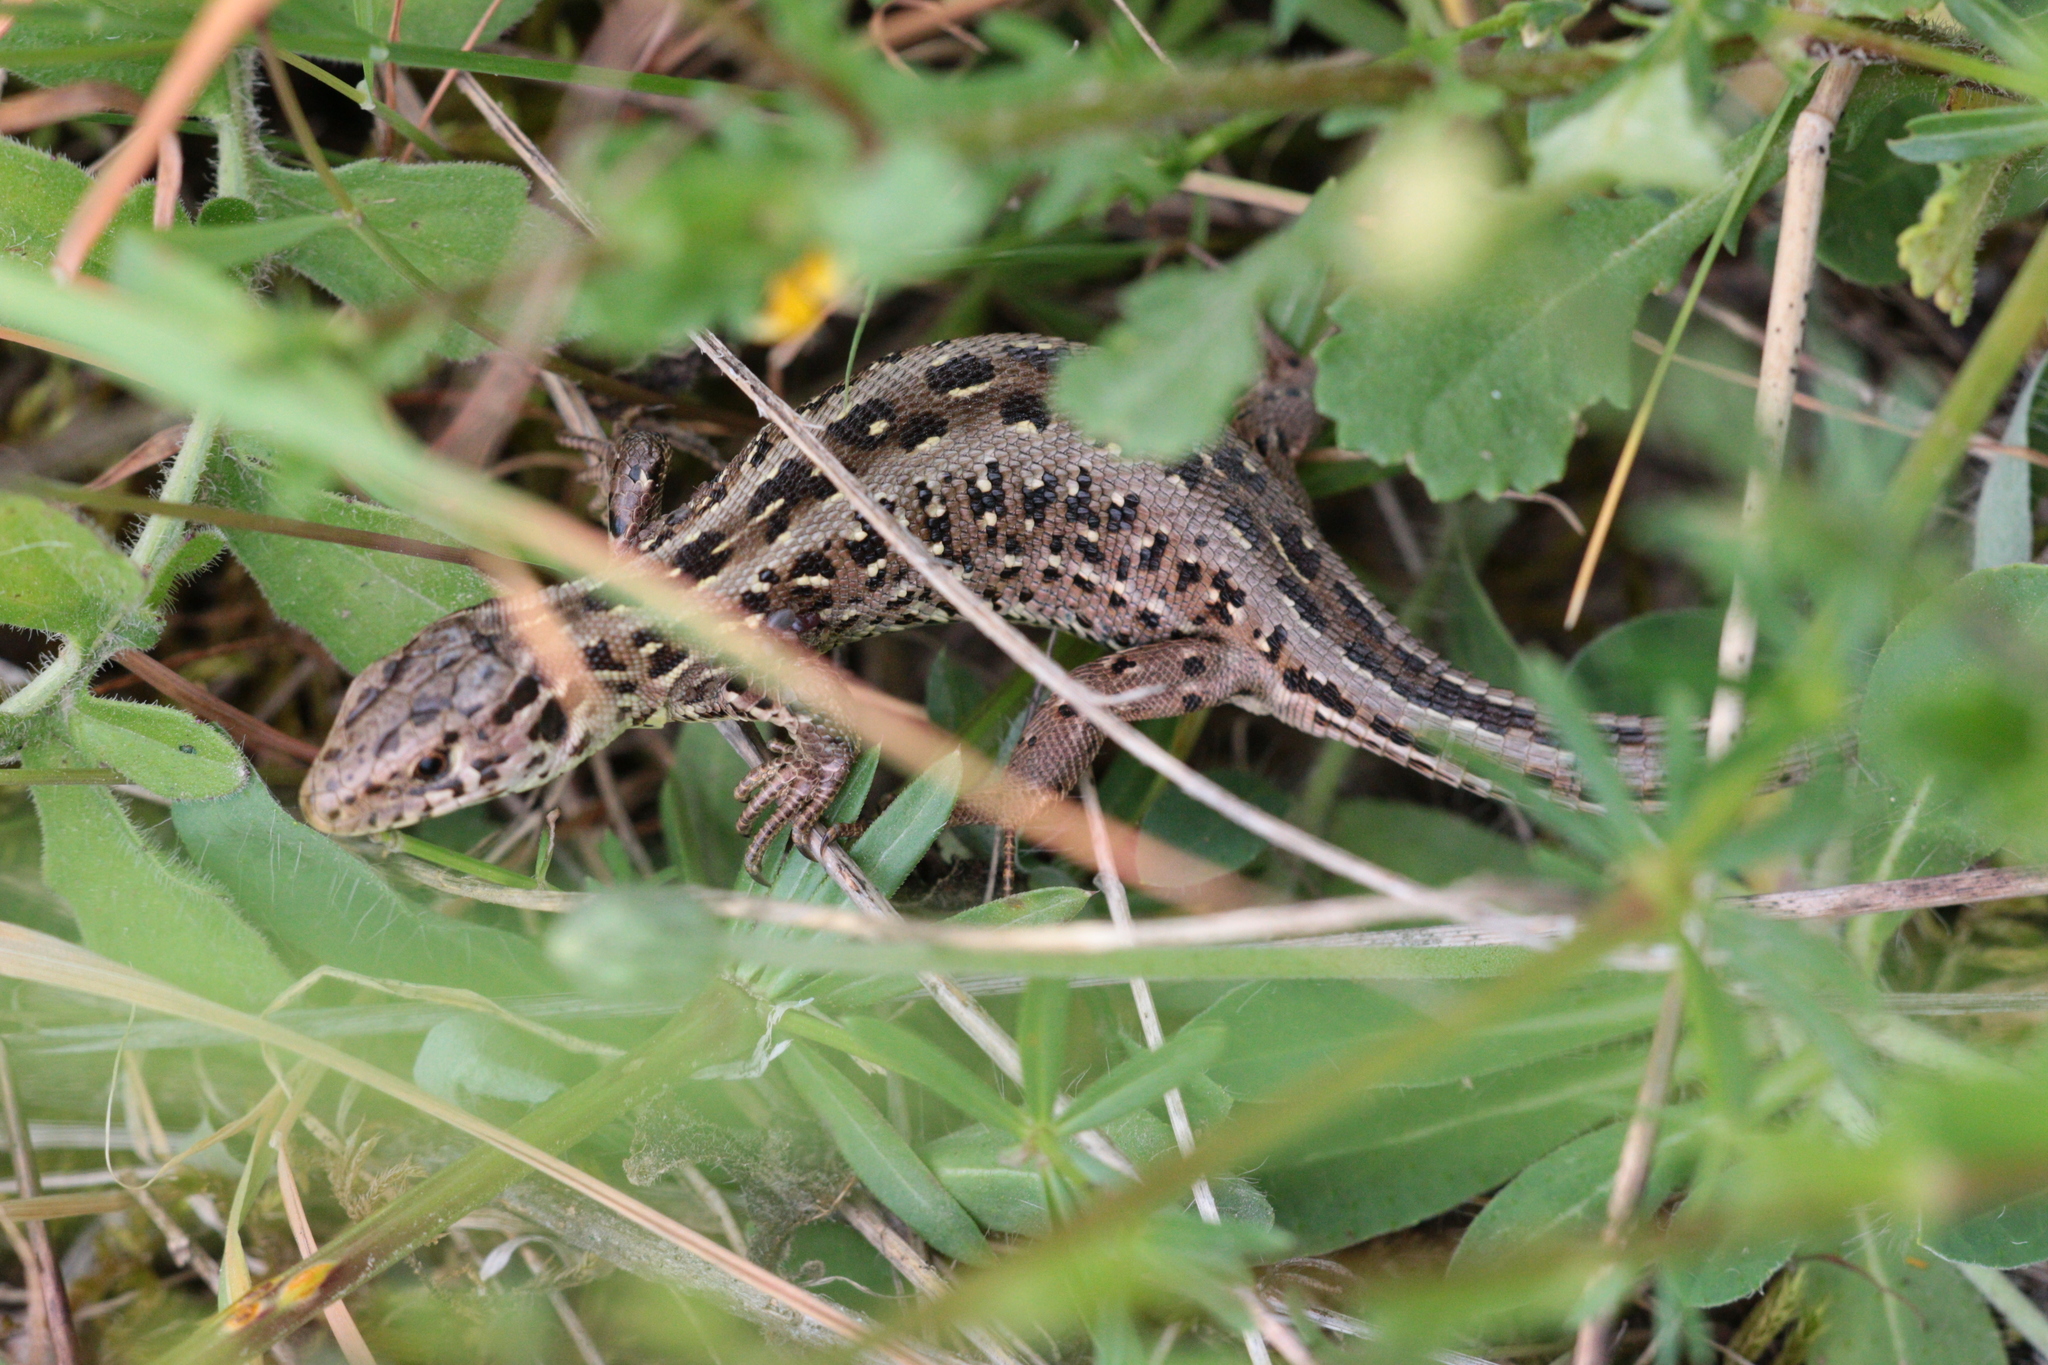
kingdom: Animalia
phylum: Chordata
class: Squamata
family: Lacertidae
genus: Lacerta
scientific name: Lacerta agilis
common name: Sand lizard
